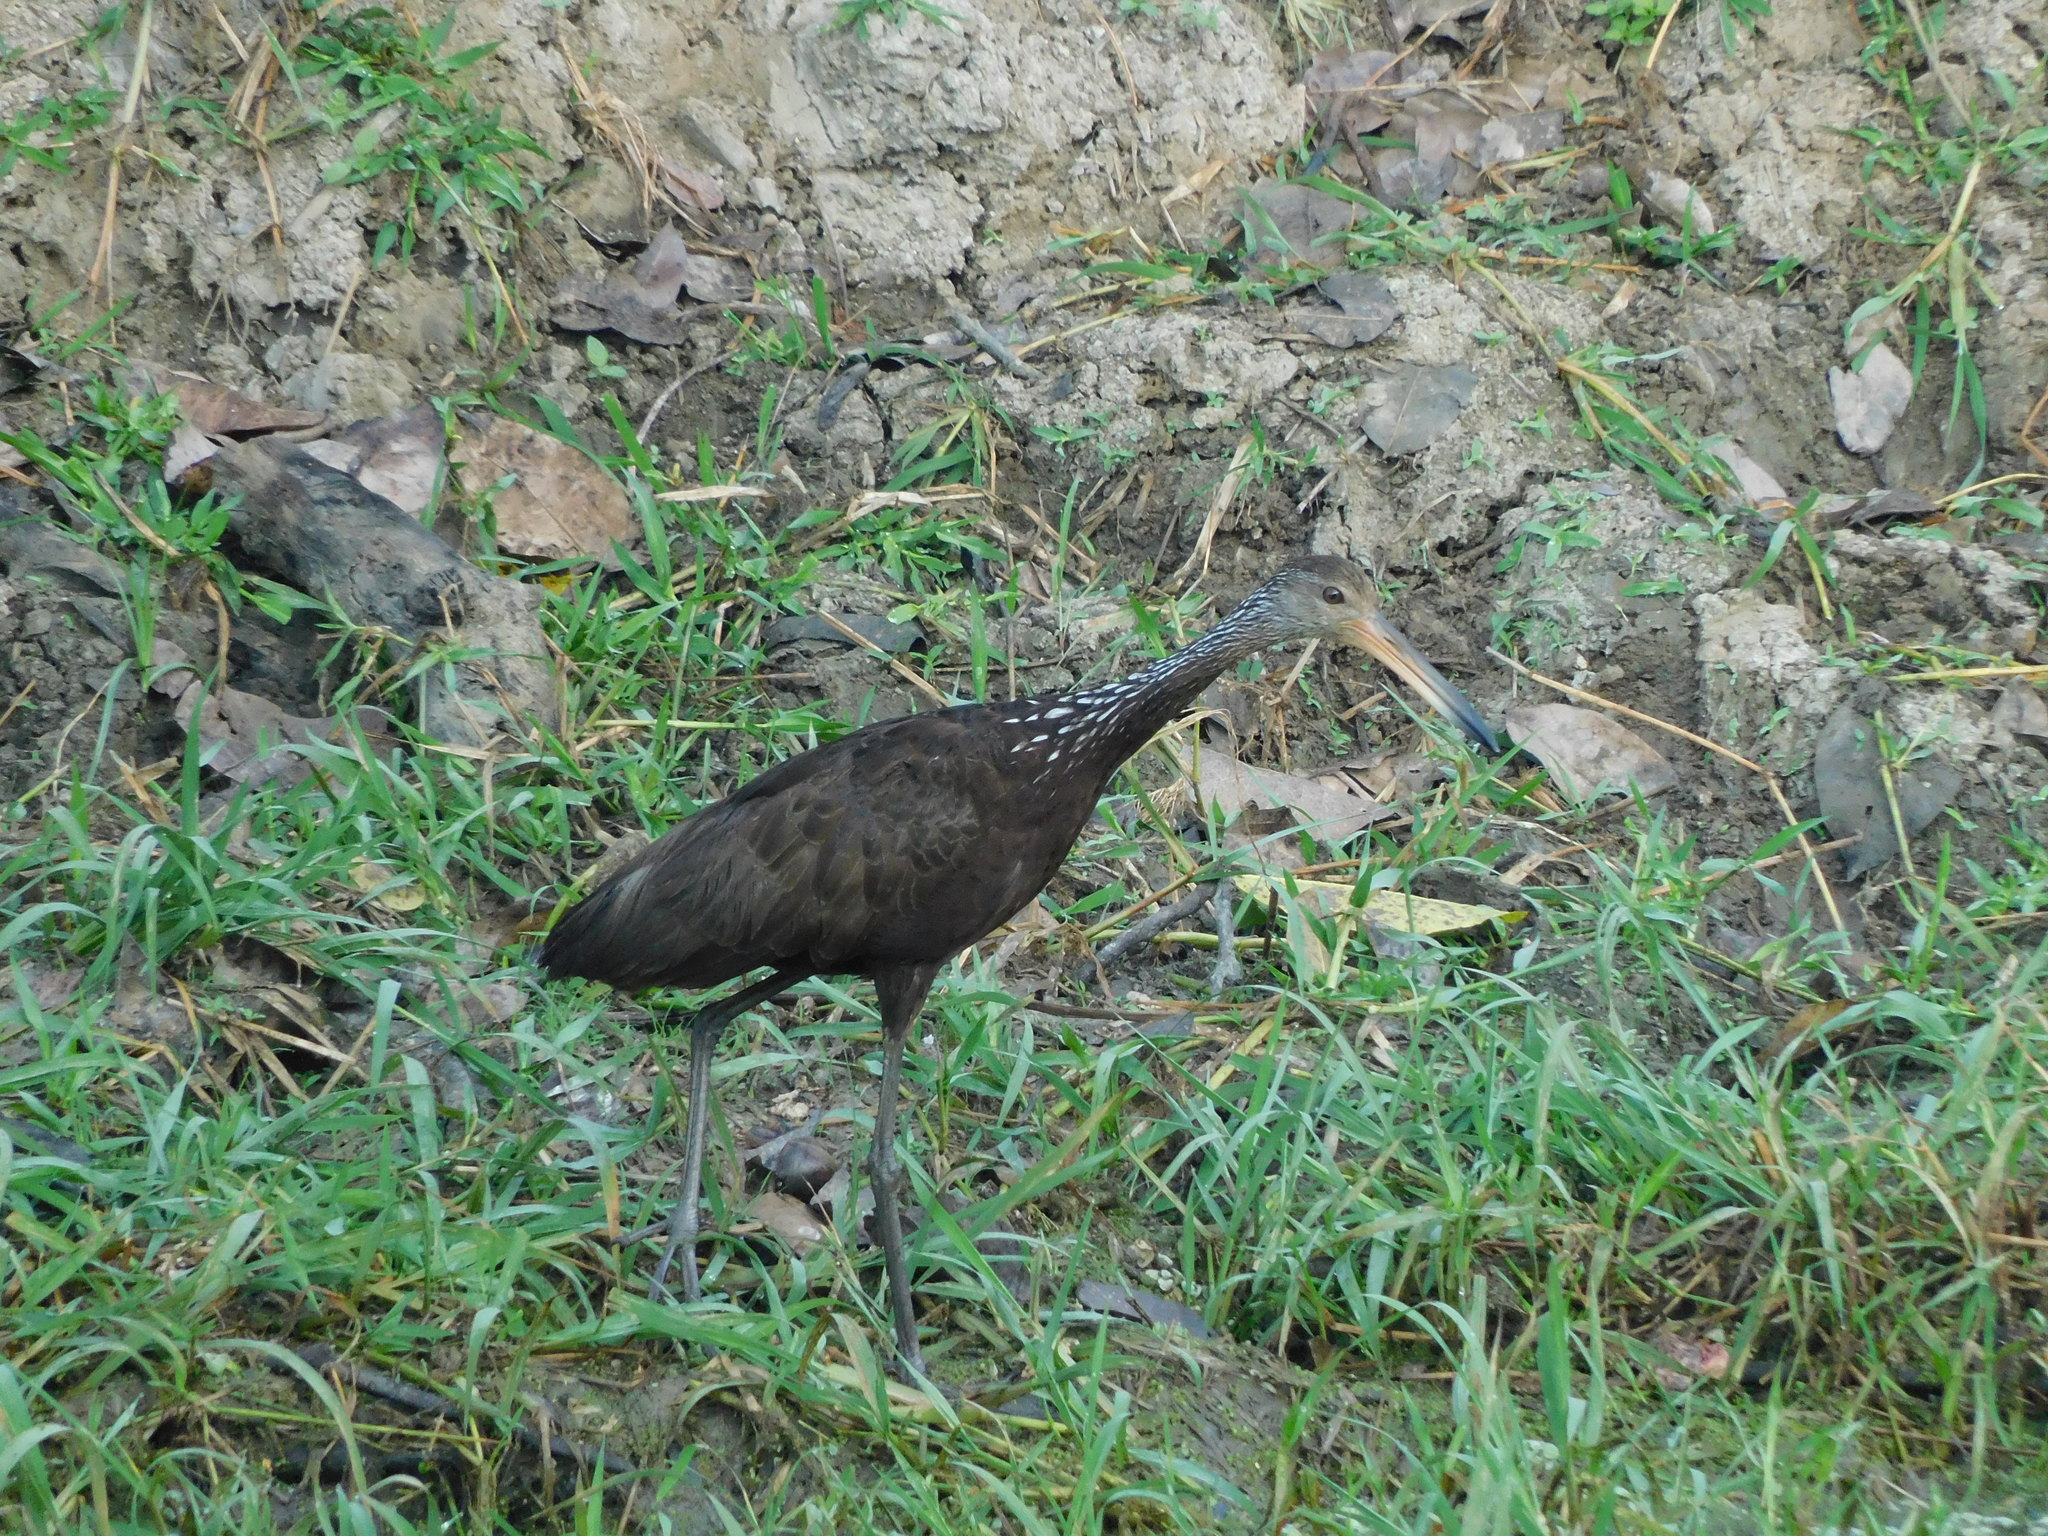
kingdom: Animalia
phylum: Chordata
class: Aves
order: Gruiformes
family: Aramidae
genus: Aramus
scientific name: Aramus guarauna
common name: Limpkin
